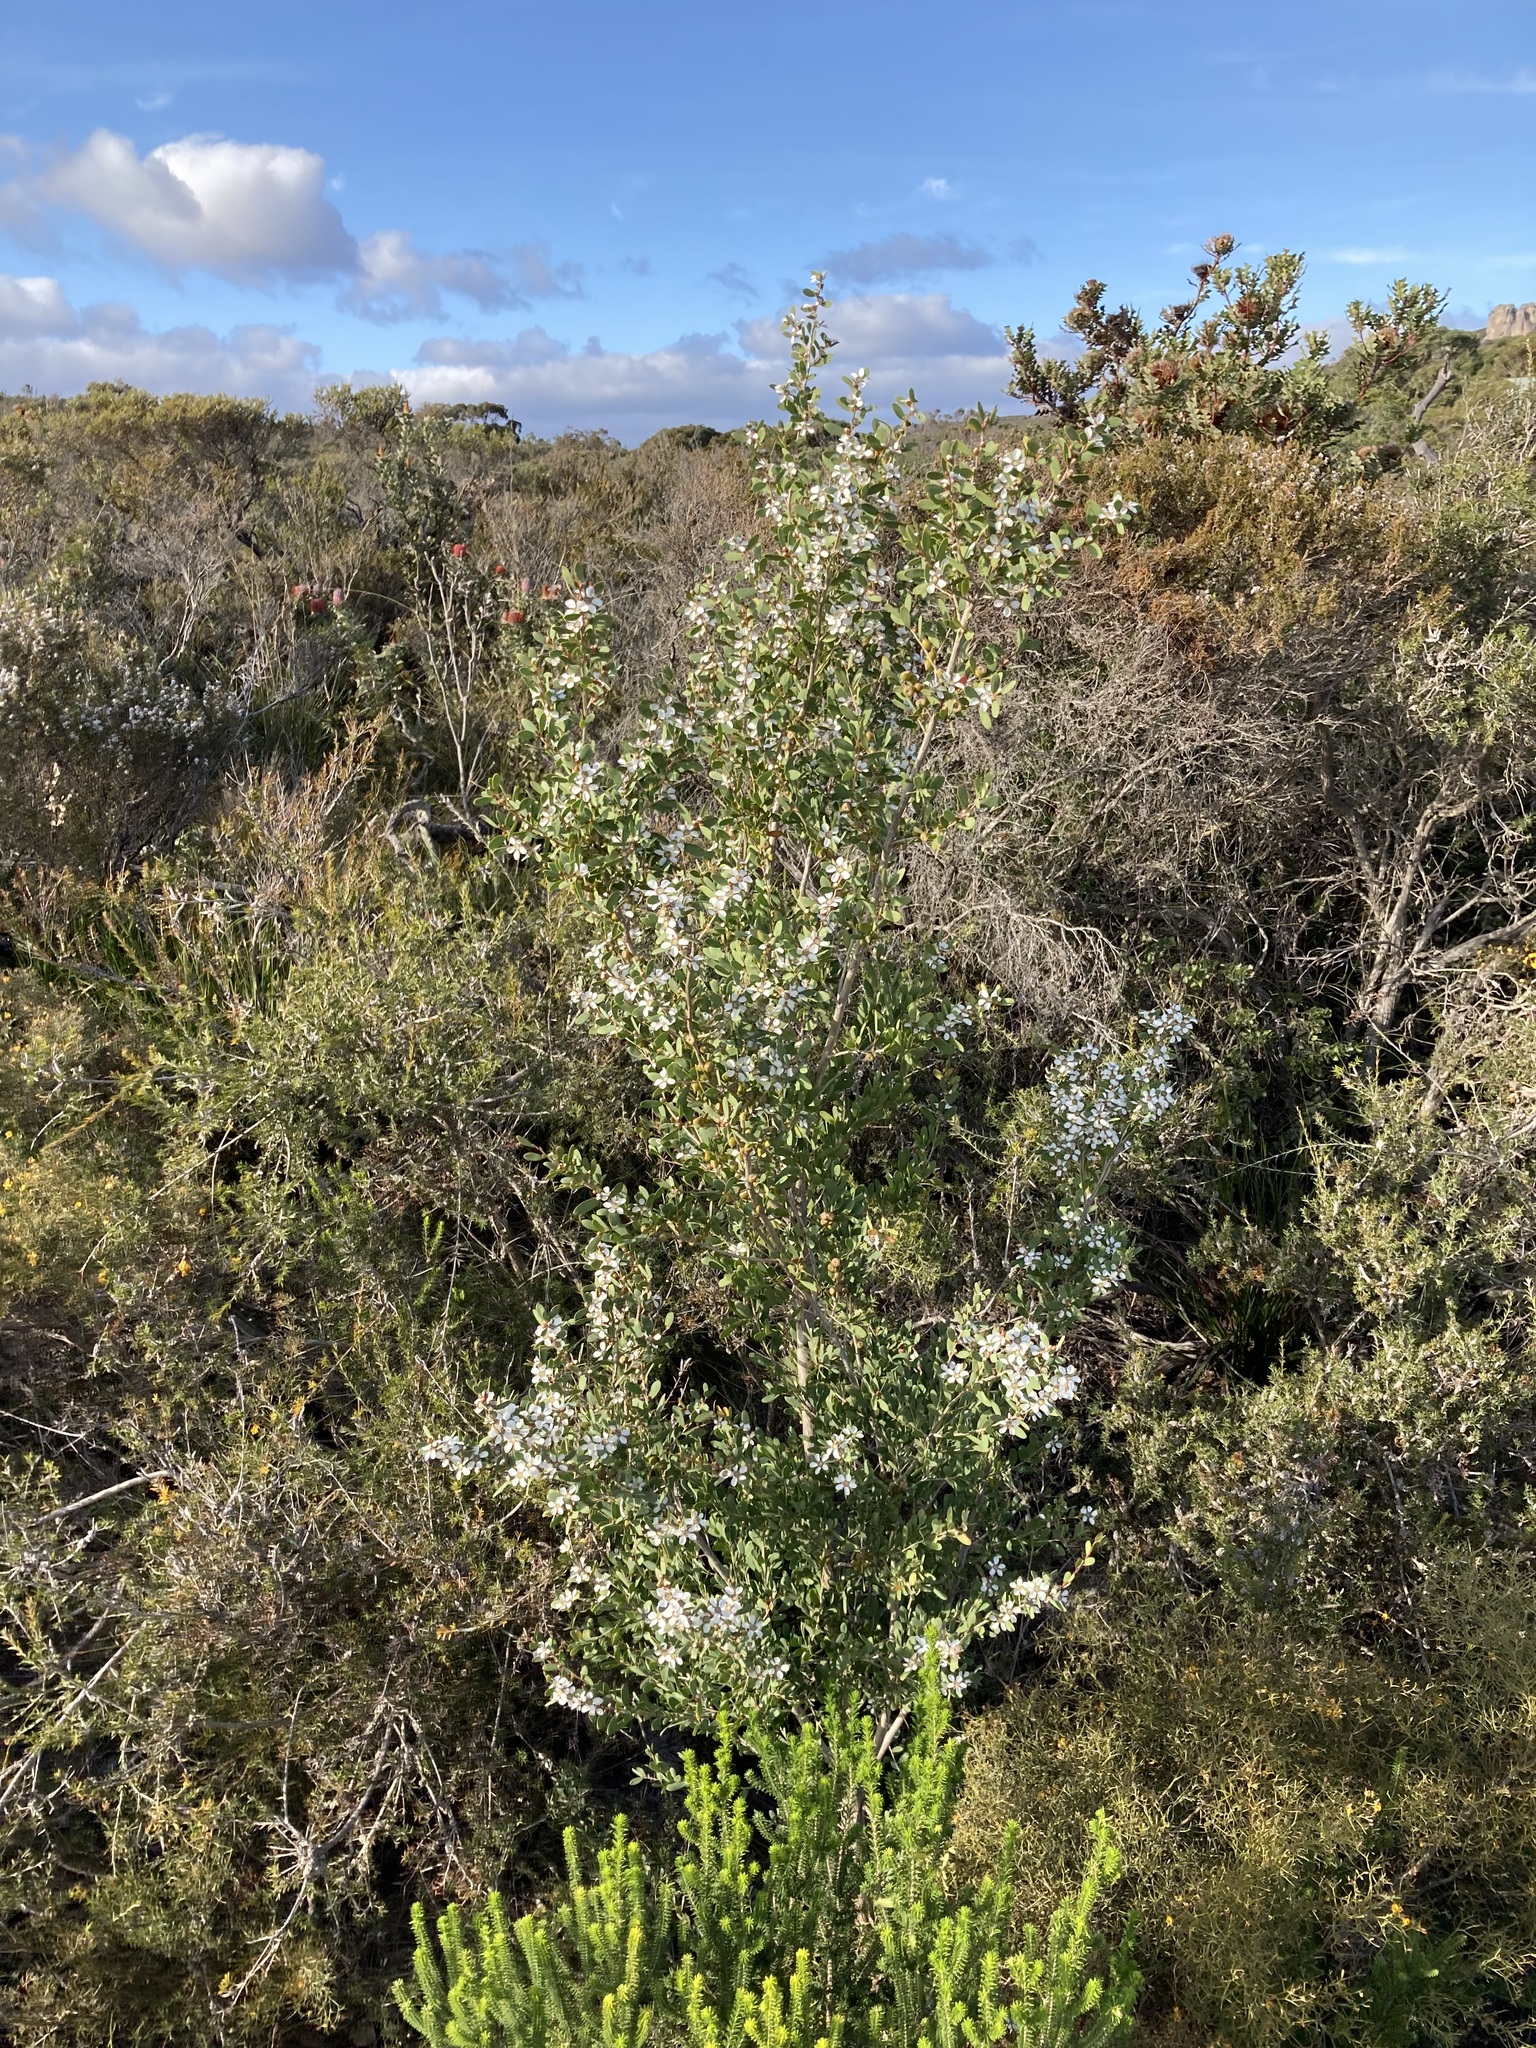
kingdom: Plantae
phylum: Tracheophyta
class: Magnoliopsida
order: Myrtales
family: Myrtaceae
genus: Leptospermum
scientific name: Leptospermum laevigatum
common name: Australian teatree
